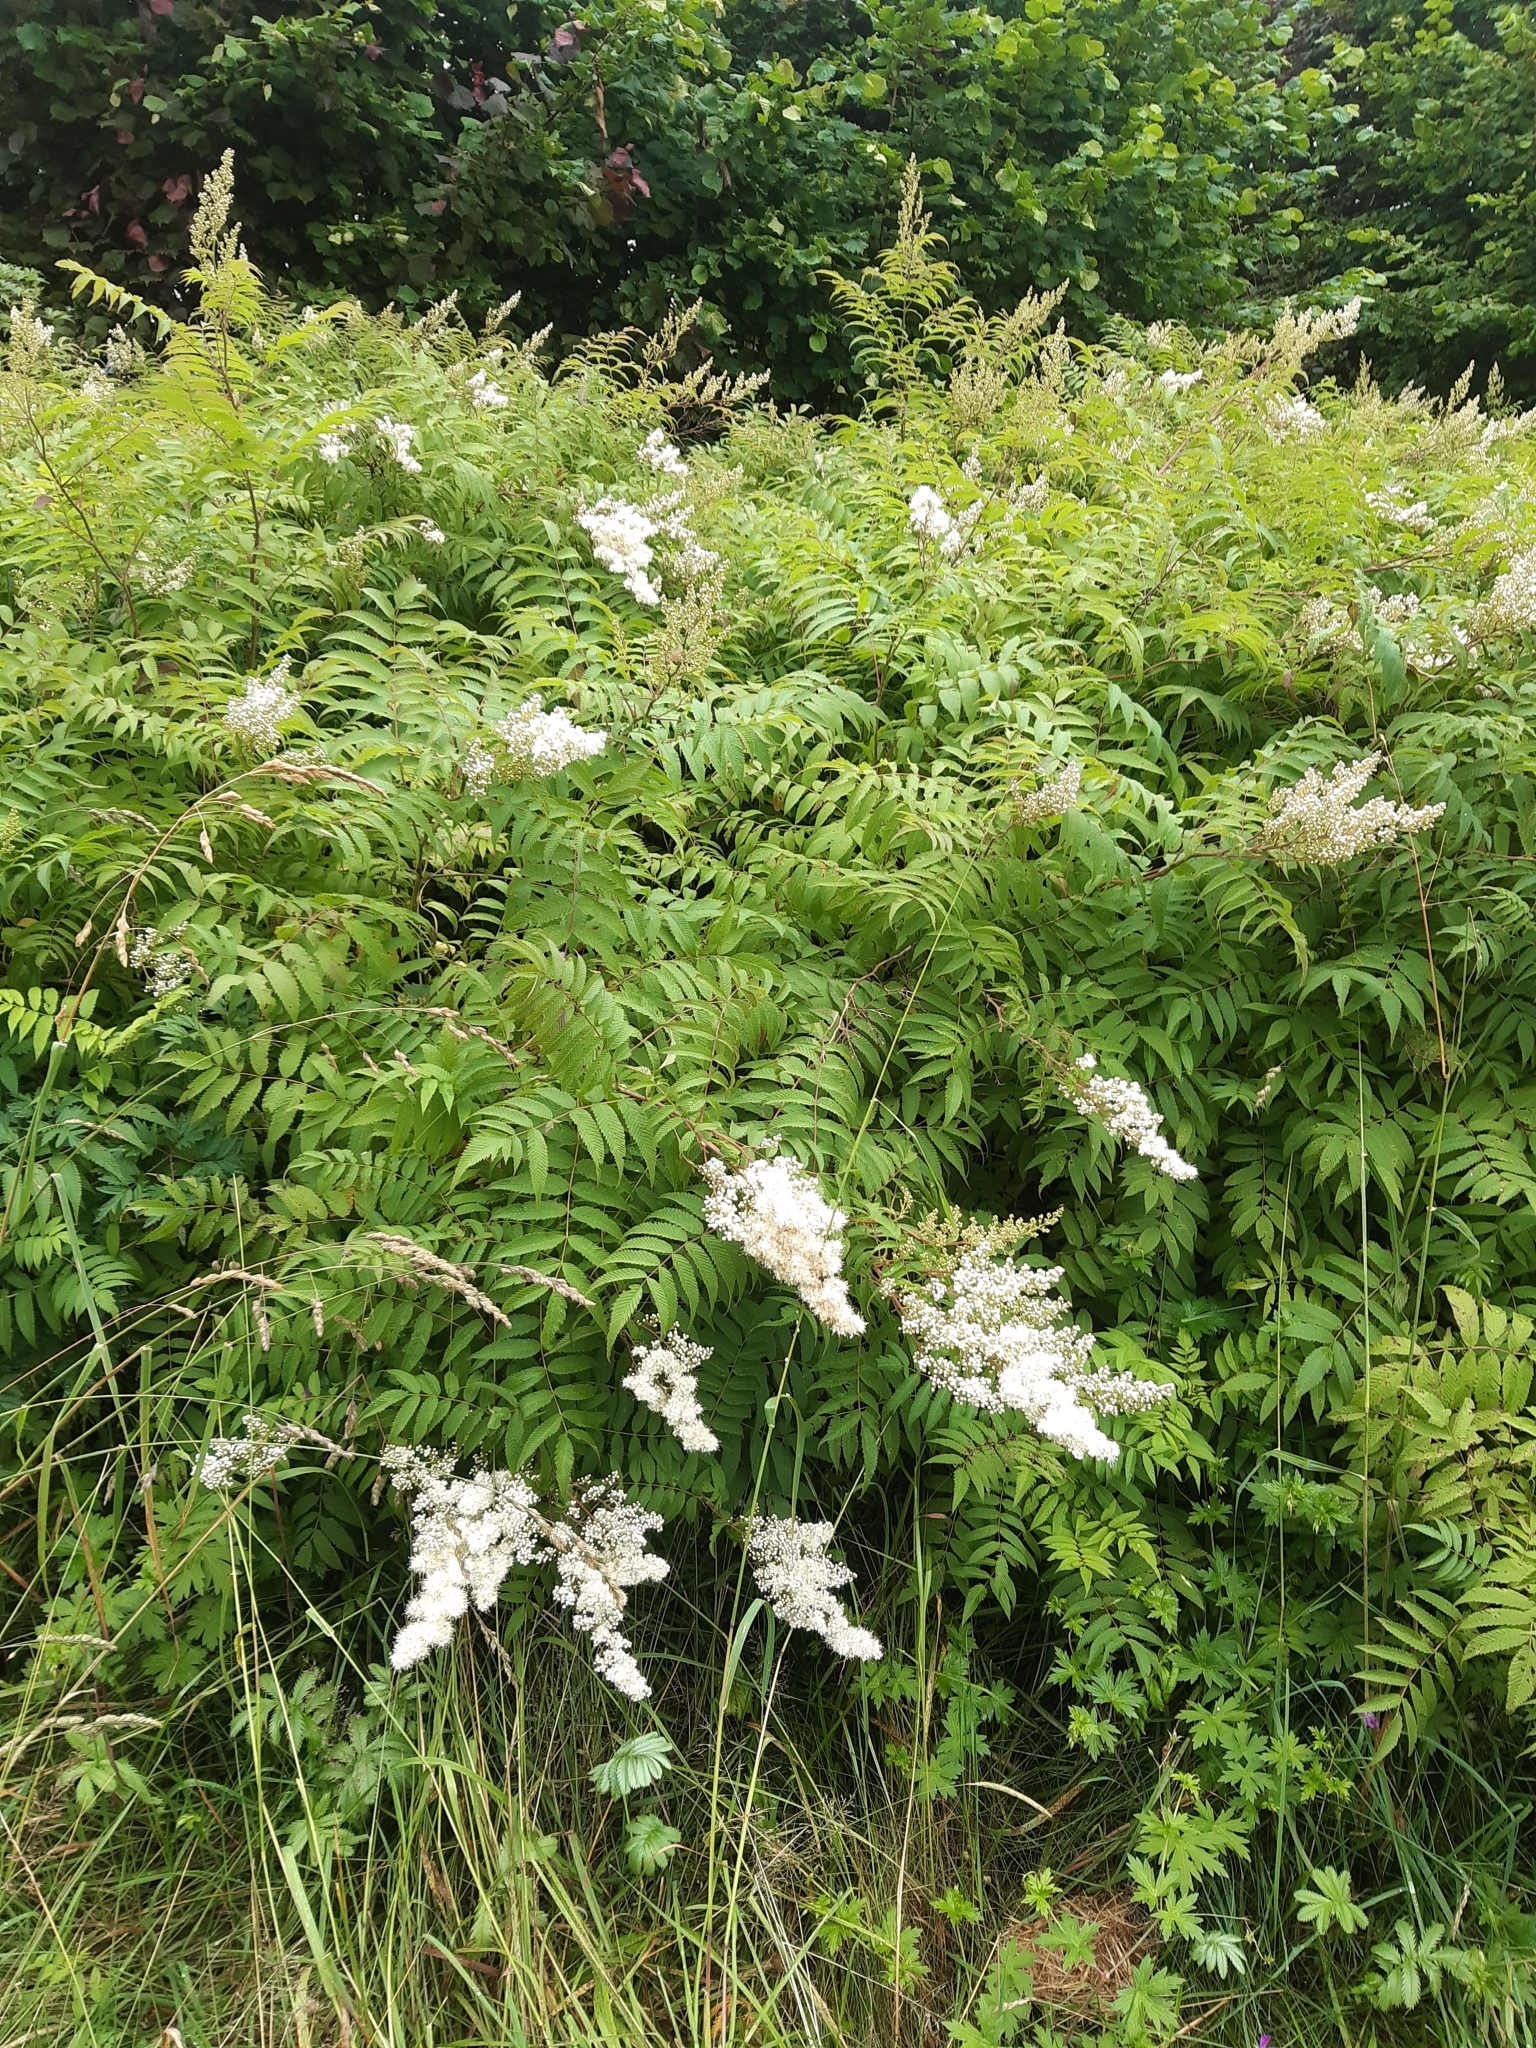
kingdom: Plantae
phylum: Tracheophyta
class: Magnoliopsida
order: Rosales
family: Rosaceae
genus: Sorbaria
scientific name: Sorbaria sorbifolia
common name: False spiraea
